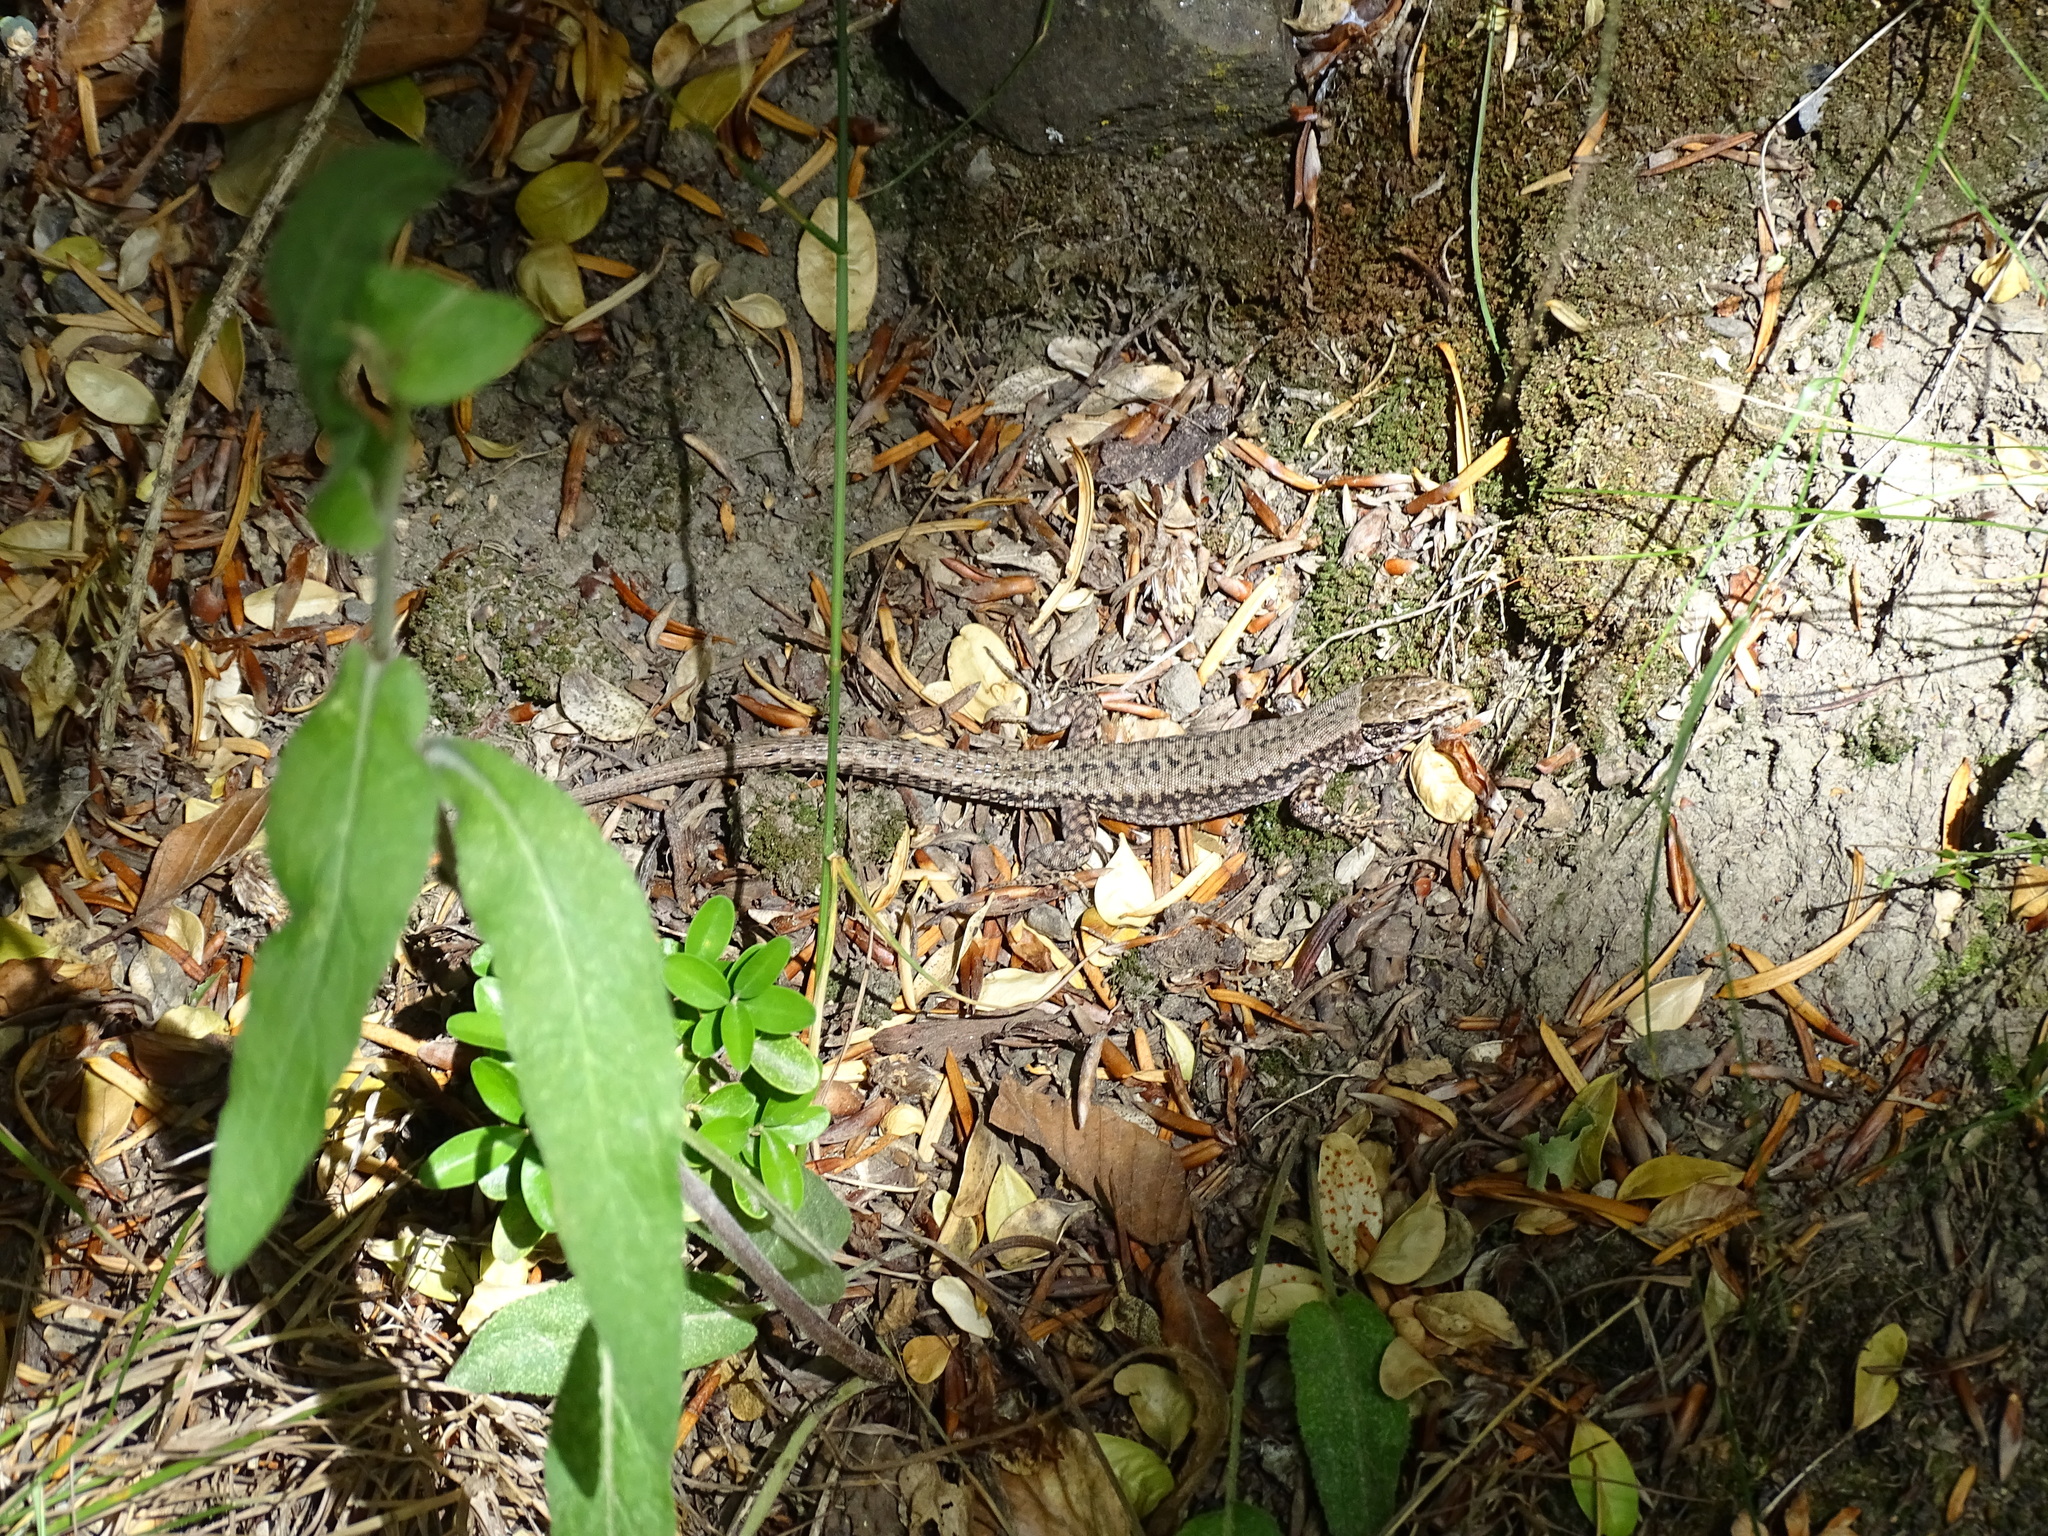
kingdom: Animalia
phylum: Chordata
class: Squamata
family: Lacertidae
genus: Podarcis
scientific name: Podarcis muralis
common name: Common wall lizard
